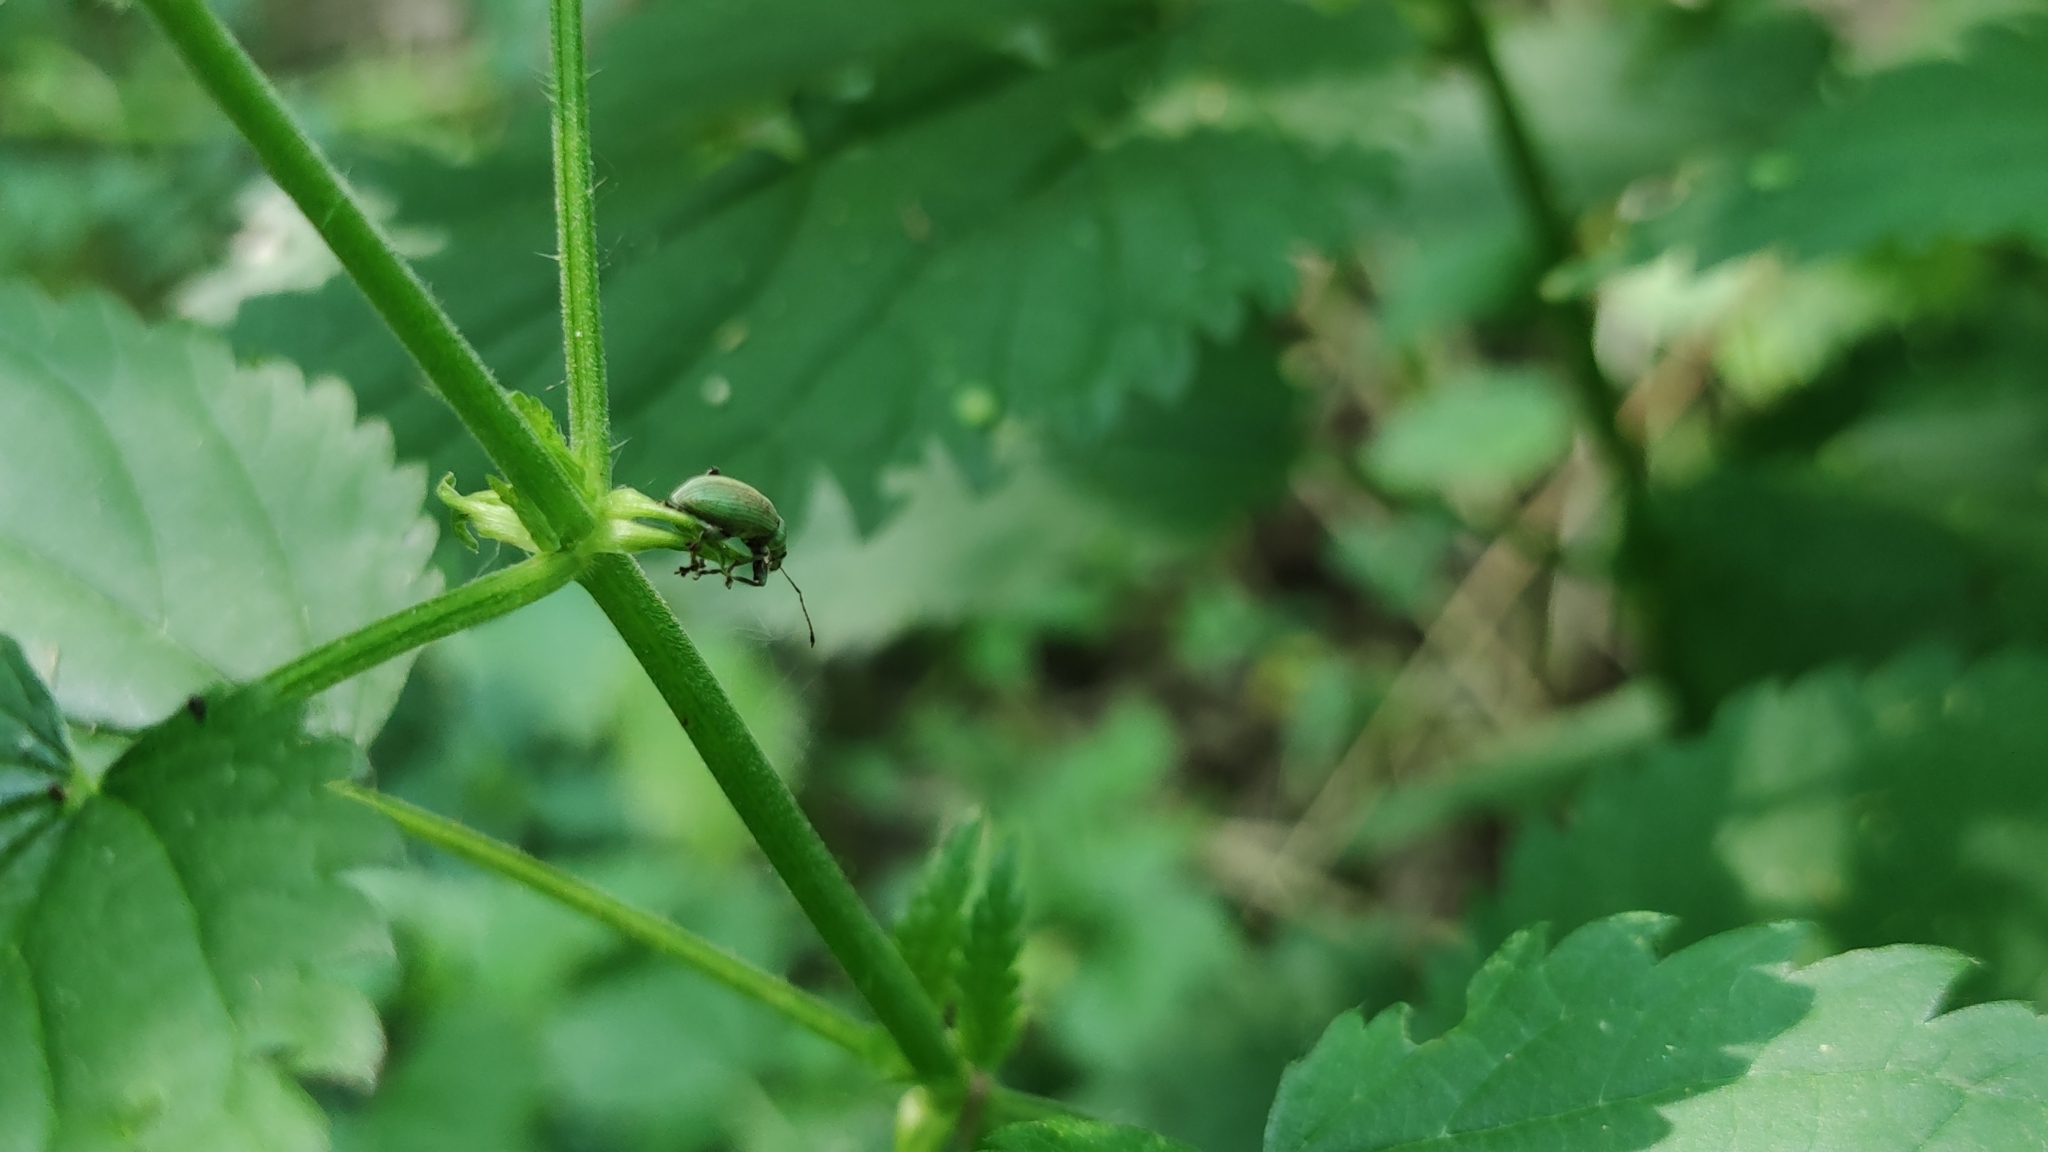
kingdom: Animalia
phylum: Arthropoda
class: Insecta
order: Coleoptera
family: Curculionidae
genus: Phyllobius
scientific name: Phyllobius pomaceus
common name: Green nettle weevil
